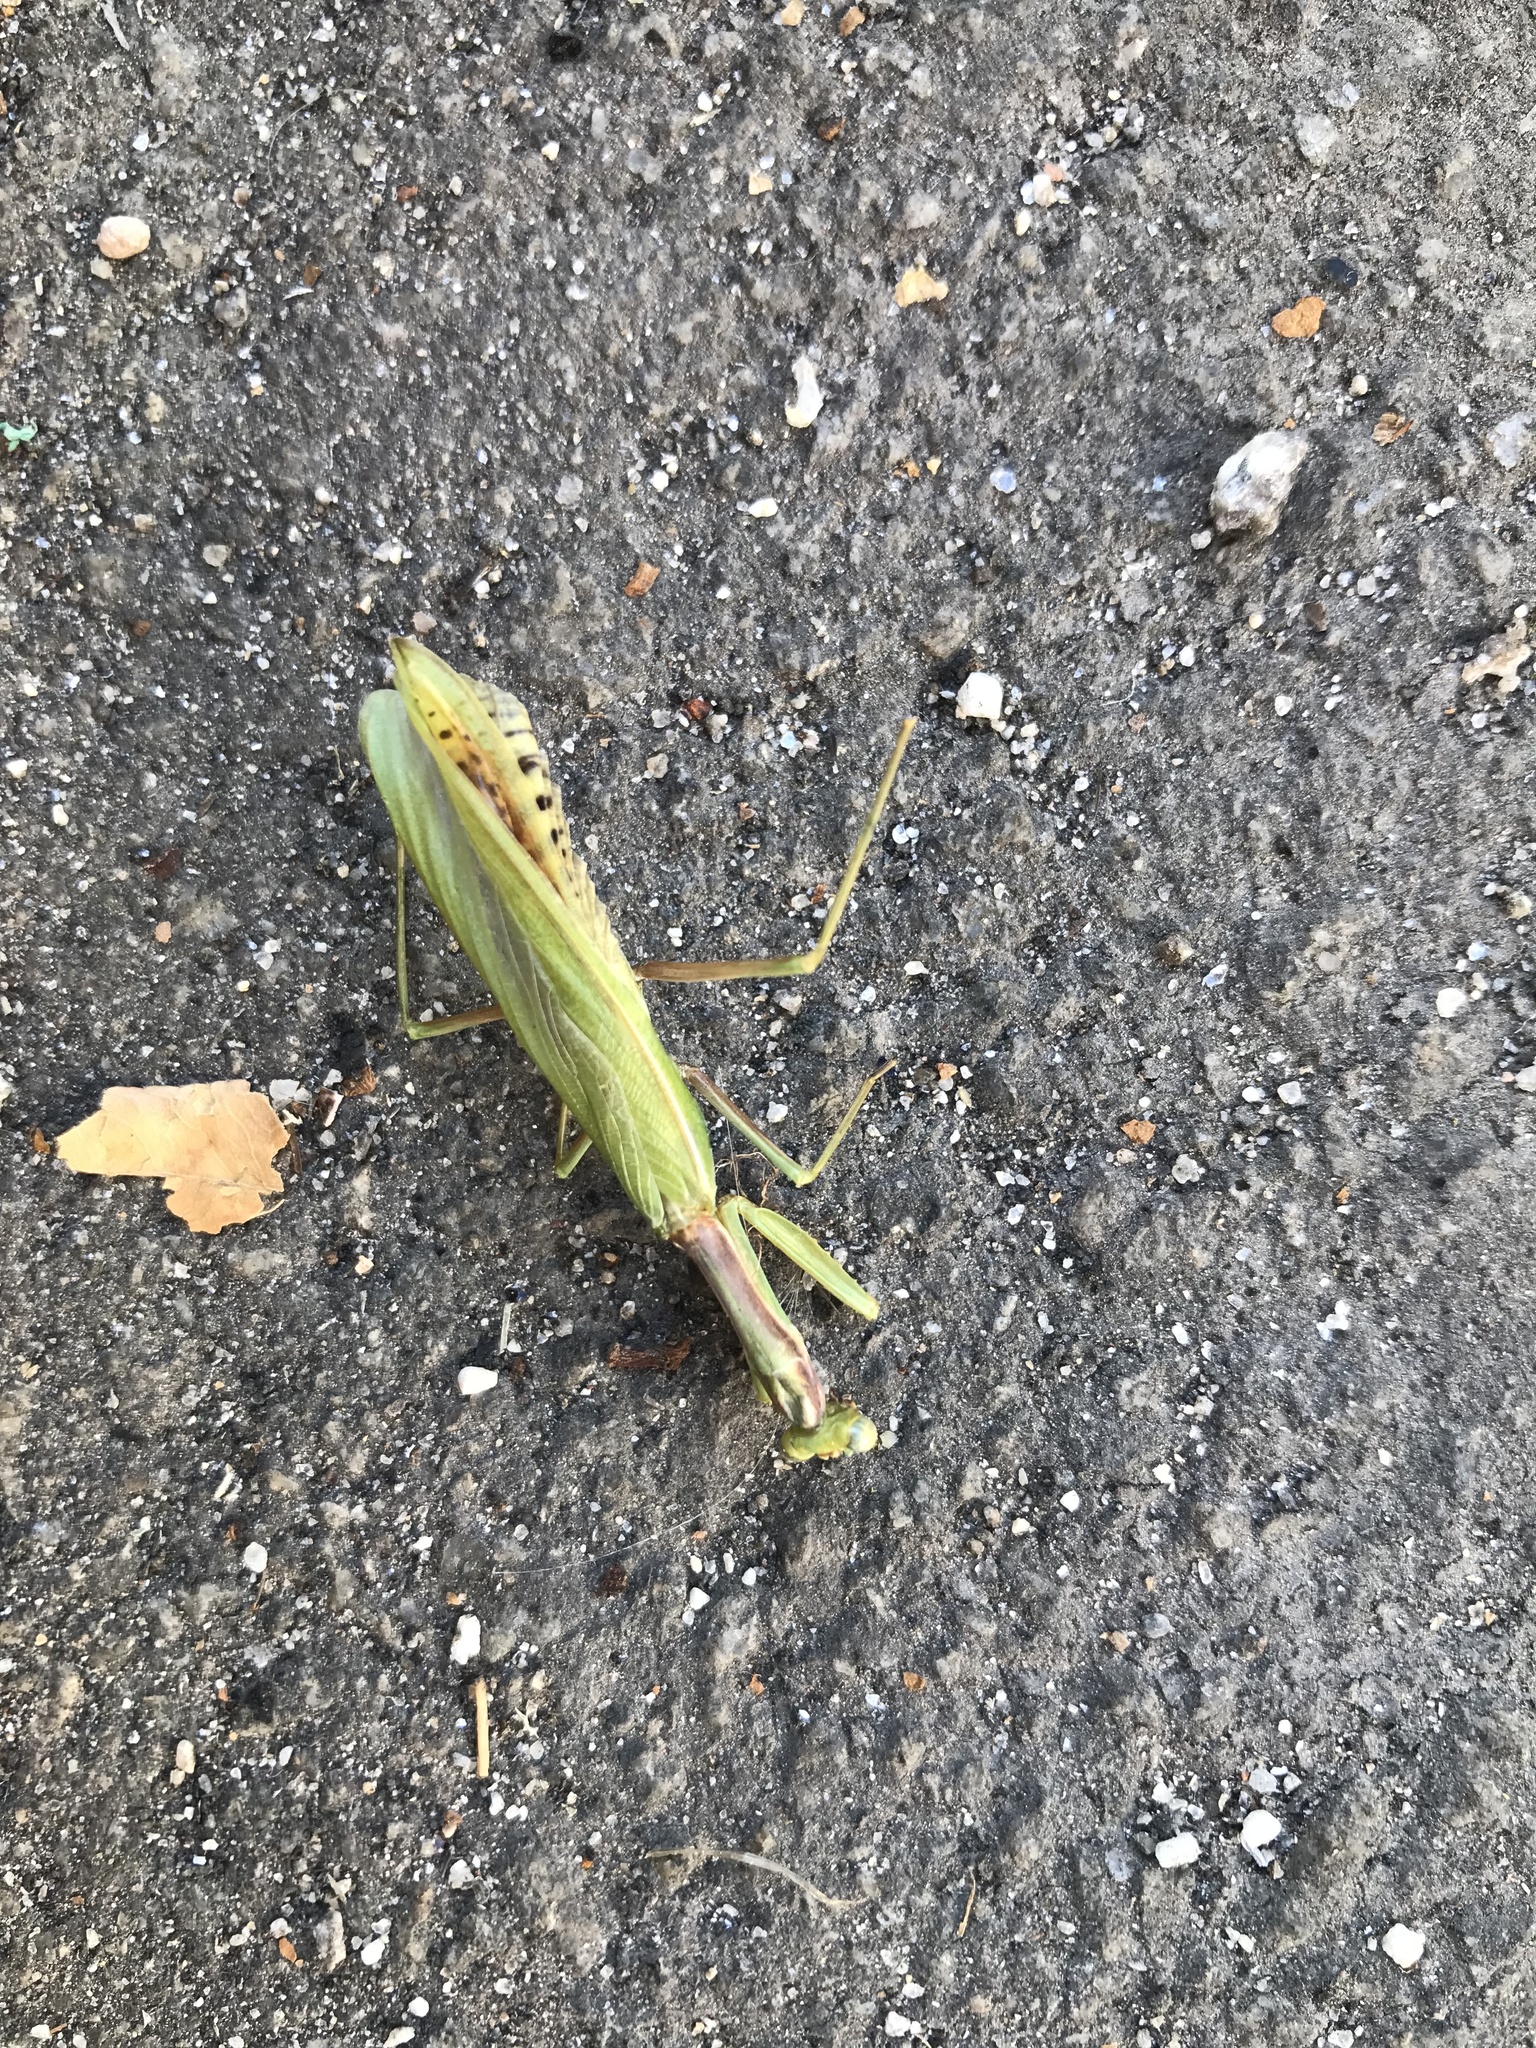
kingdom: Animalia
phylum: Arthropoda
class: Insecta
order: Mantodea
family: Eremiaphilidae
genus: Iris
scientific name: Iris oratoria
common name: Mediterranean mantis
